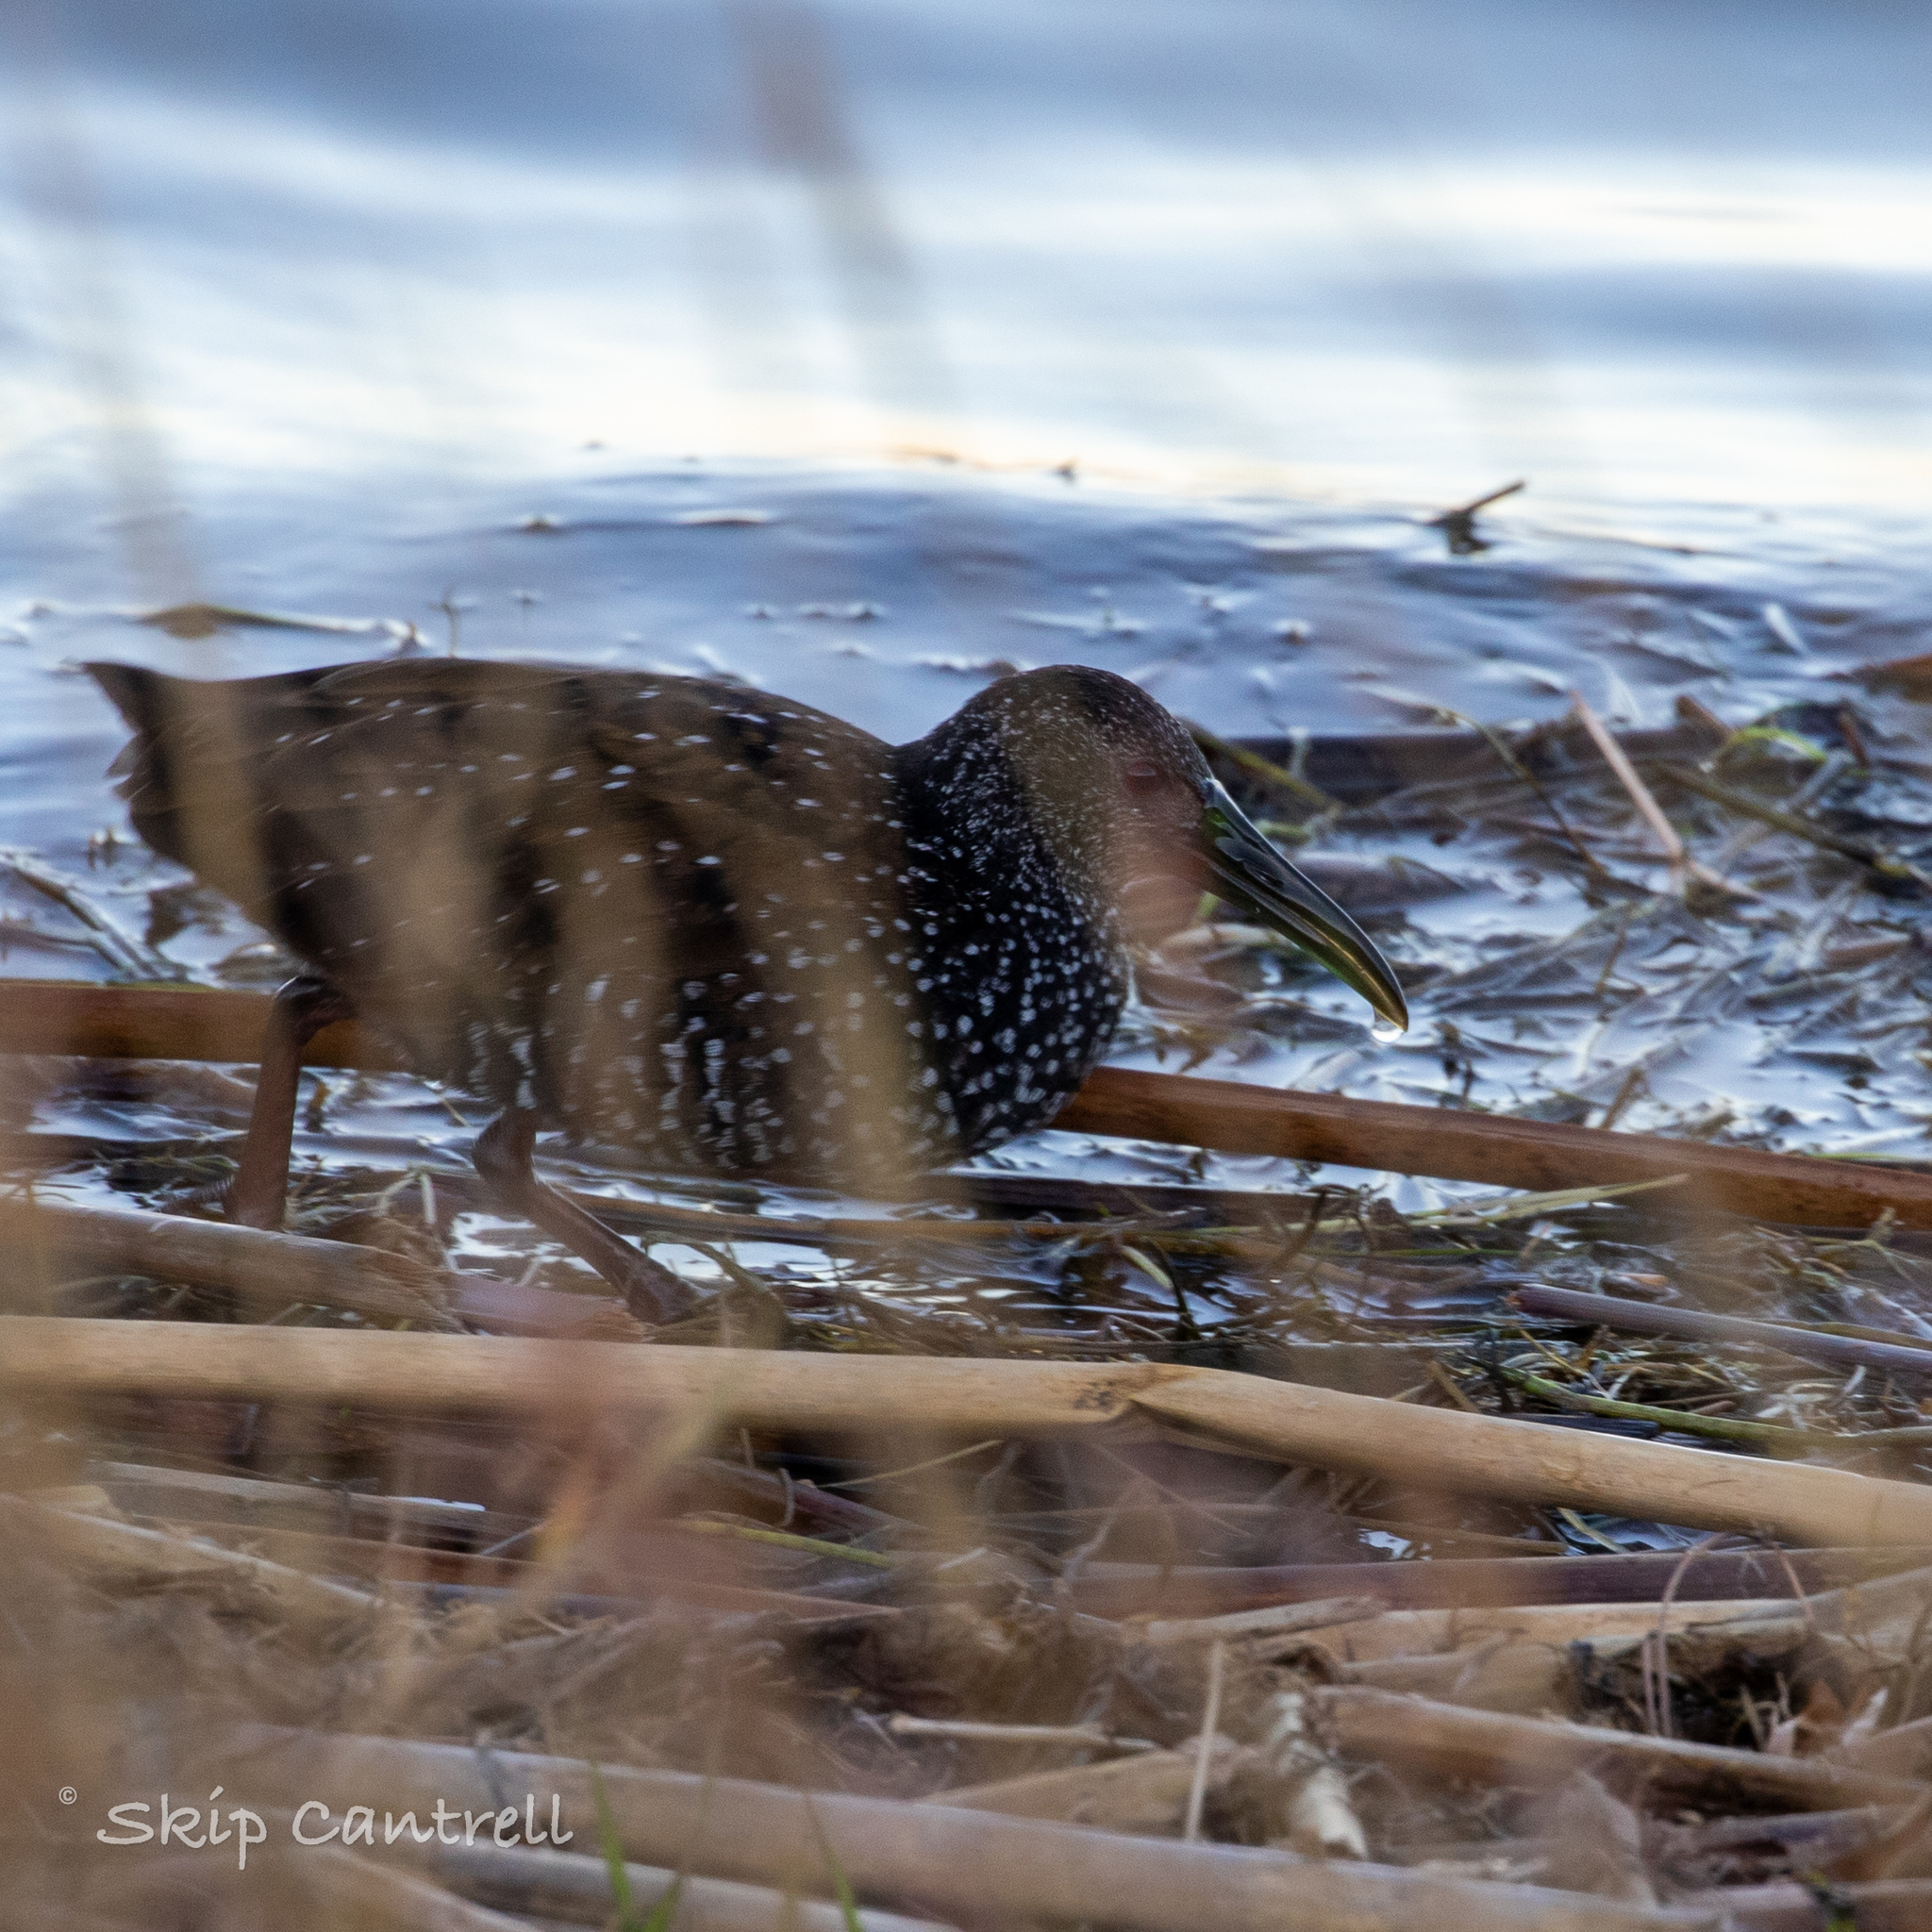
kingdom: Animalia
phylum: Chordata
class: Aves
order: Gruiformes
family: Rallidae
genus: Pardirallus
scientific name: Pardirallus maculatus
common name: Spotted rail
